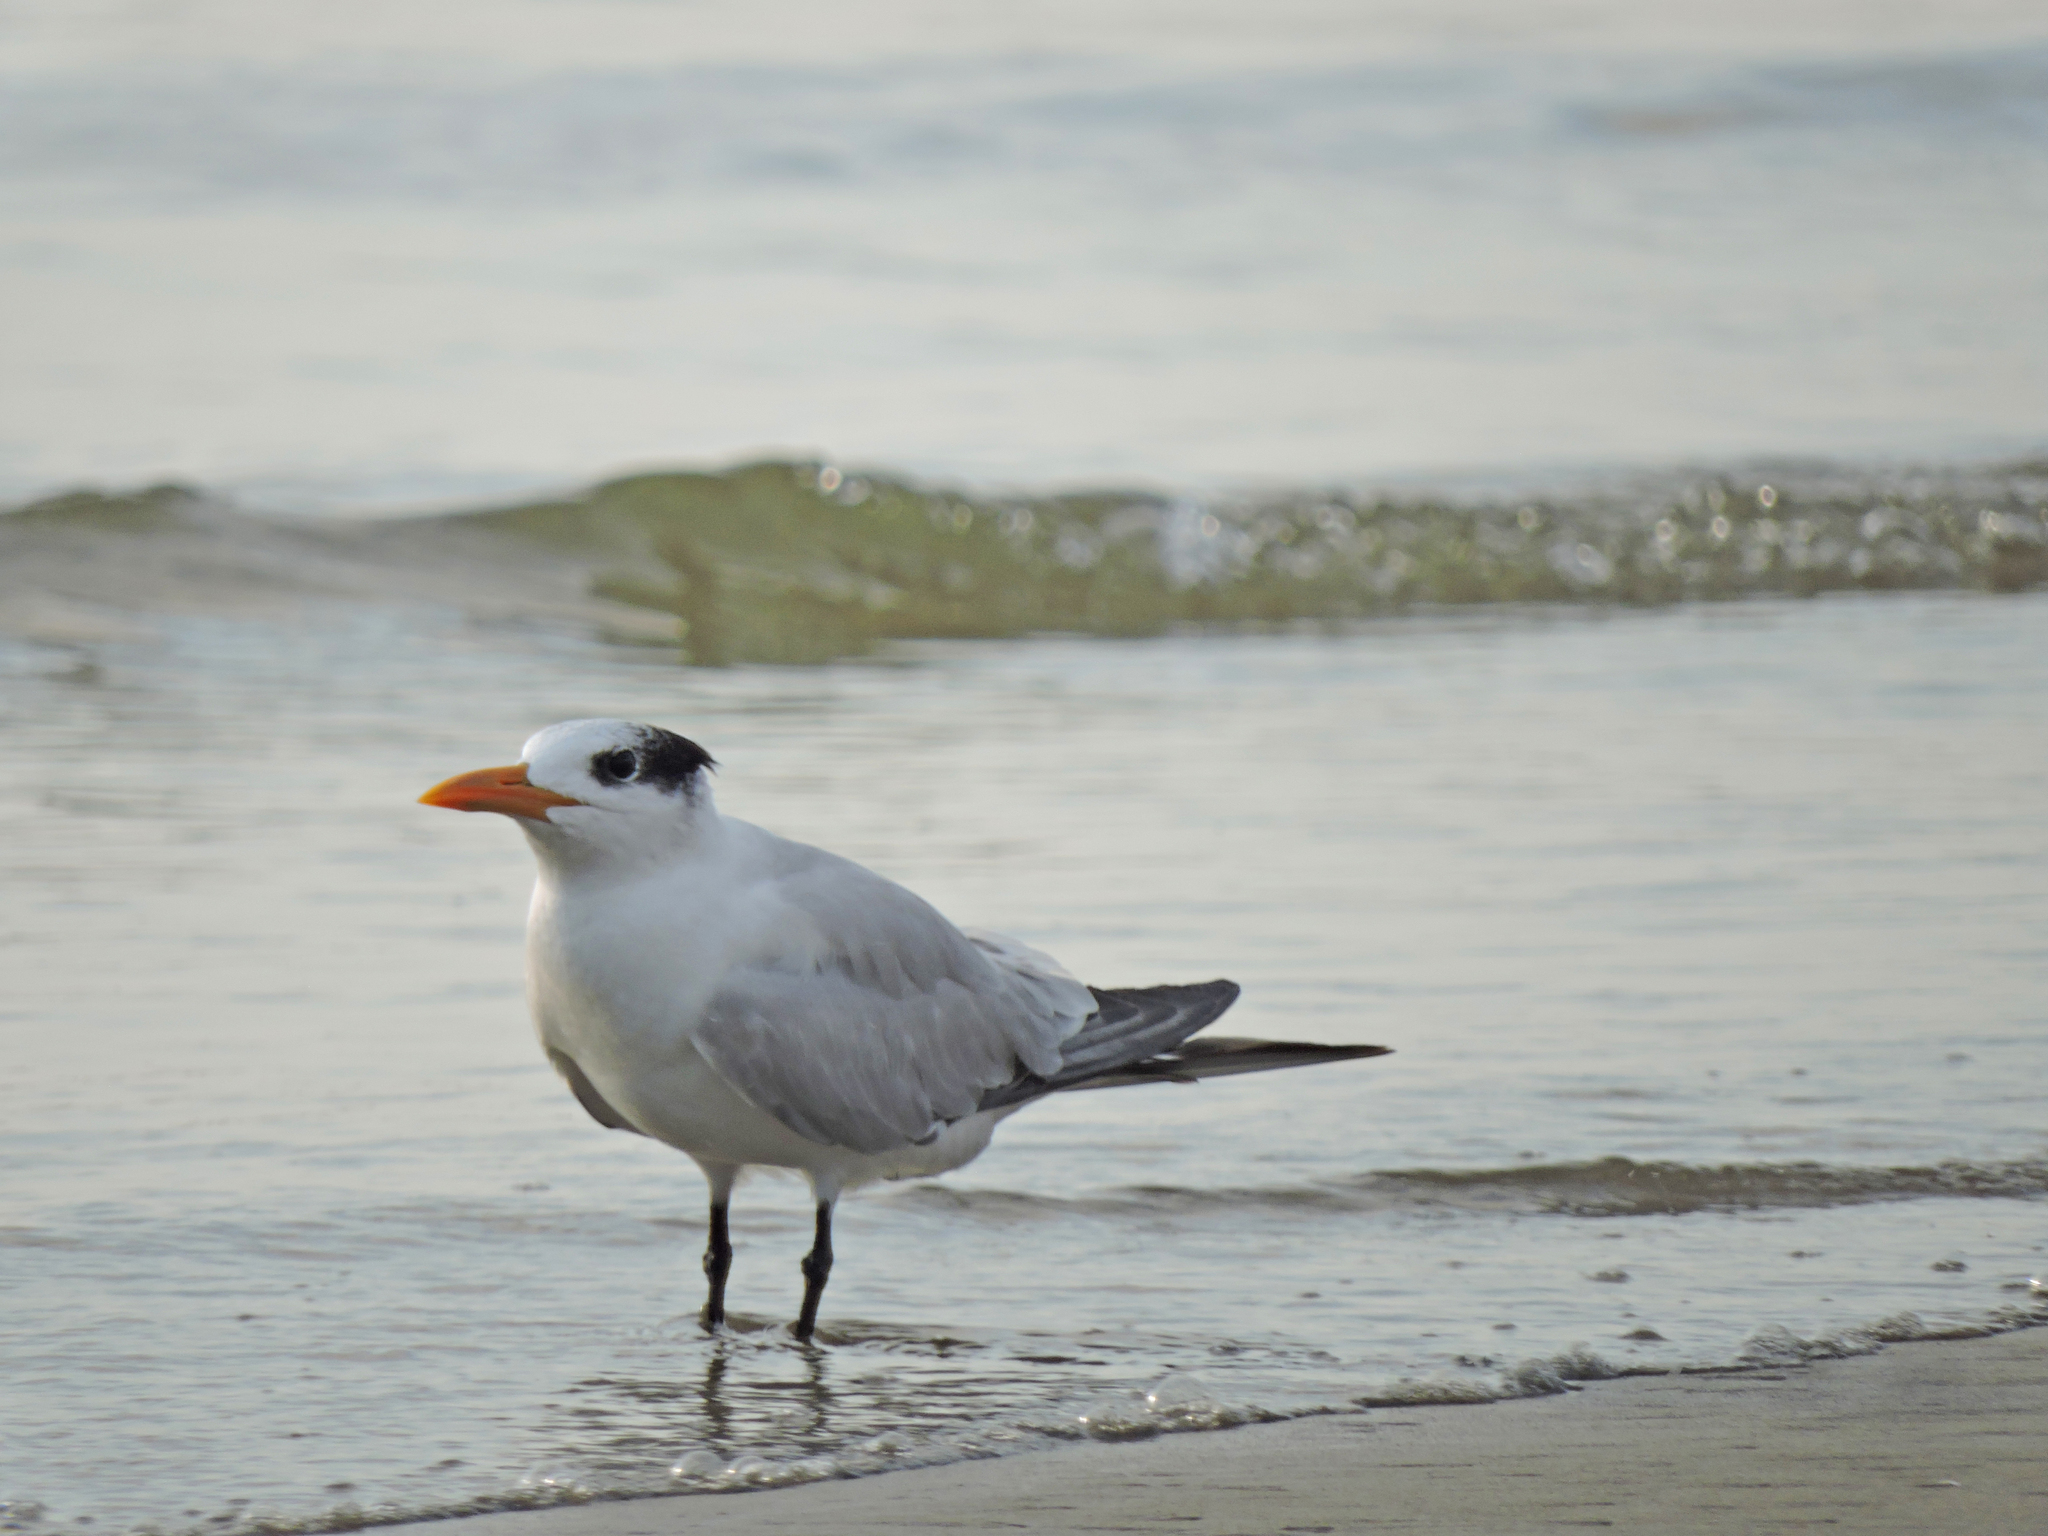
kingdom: Animalia
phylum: Chordata
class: Aves
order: Charadriiformes
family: Laridae
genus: Thalasseus
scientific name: Thalasseus maximus
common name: Royal tern
